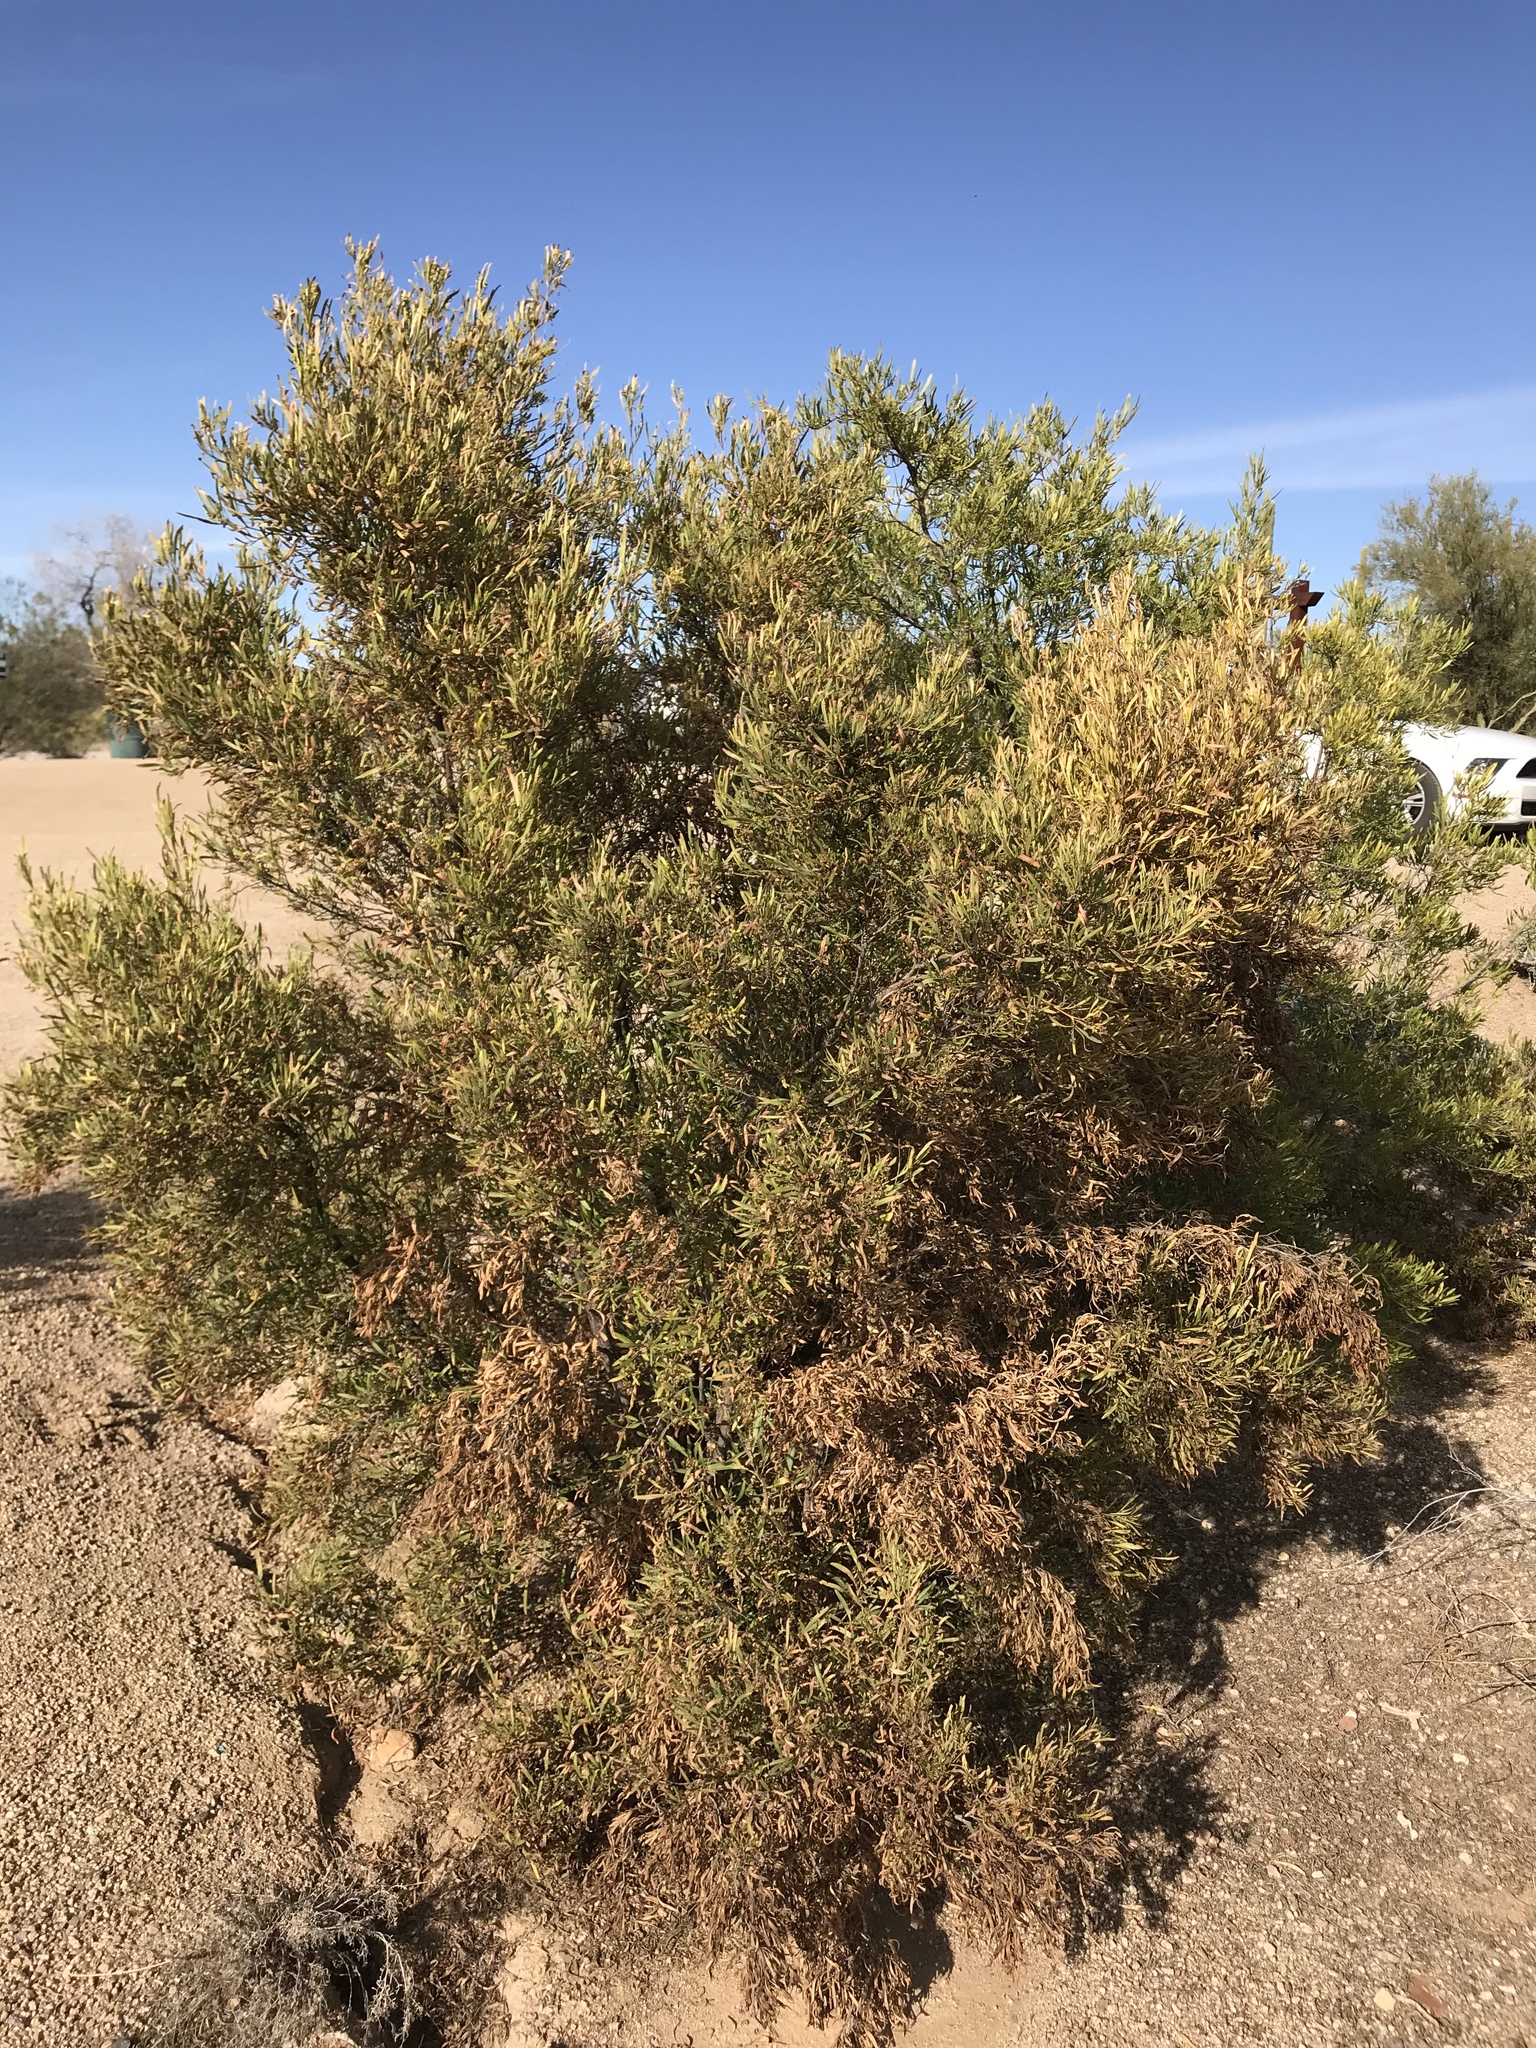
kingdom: Plantae
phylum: Tracheophyta
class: Magnoliopsida
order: Sapindales
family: Sapindaceae
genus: Dodonaea
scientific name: Dodonaea viscosa
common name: Hopbush
